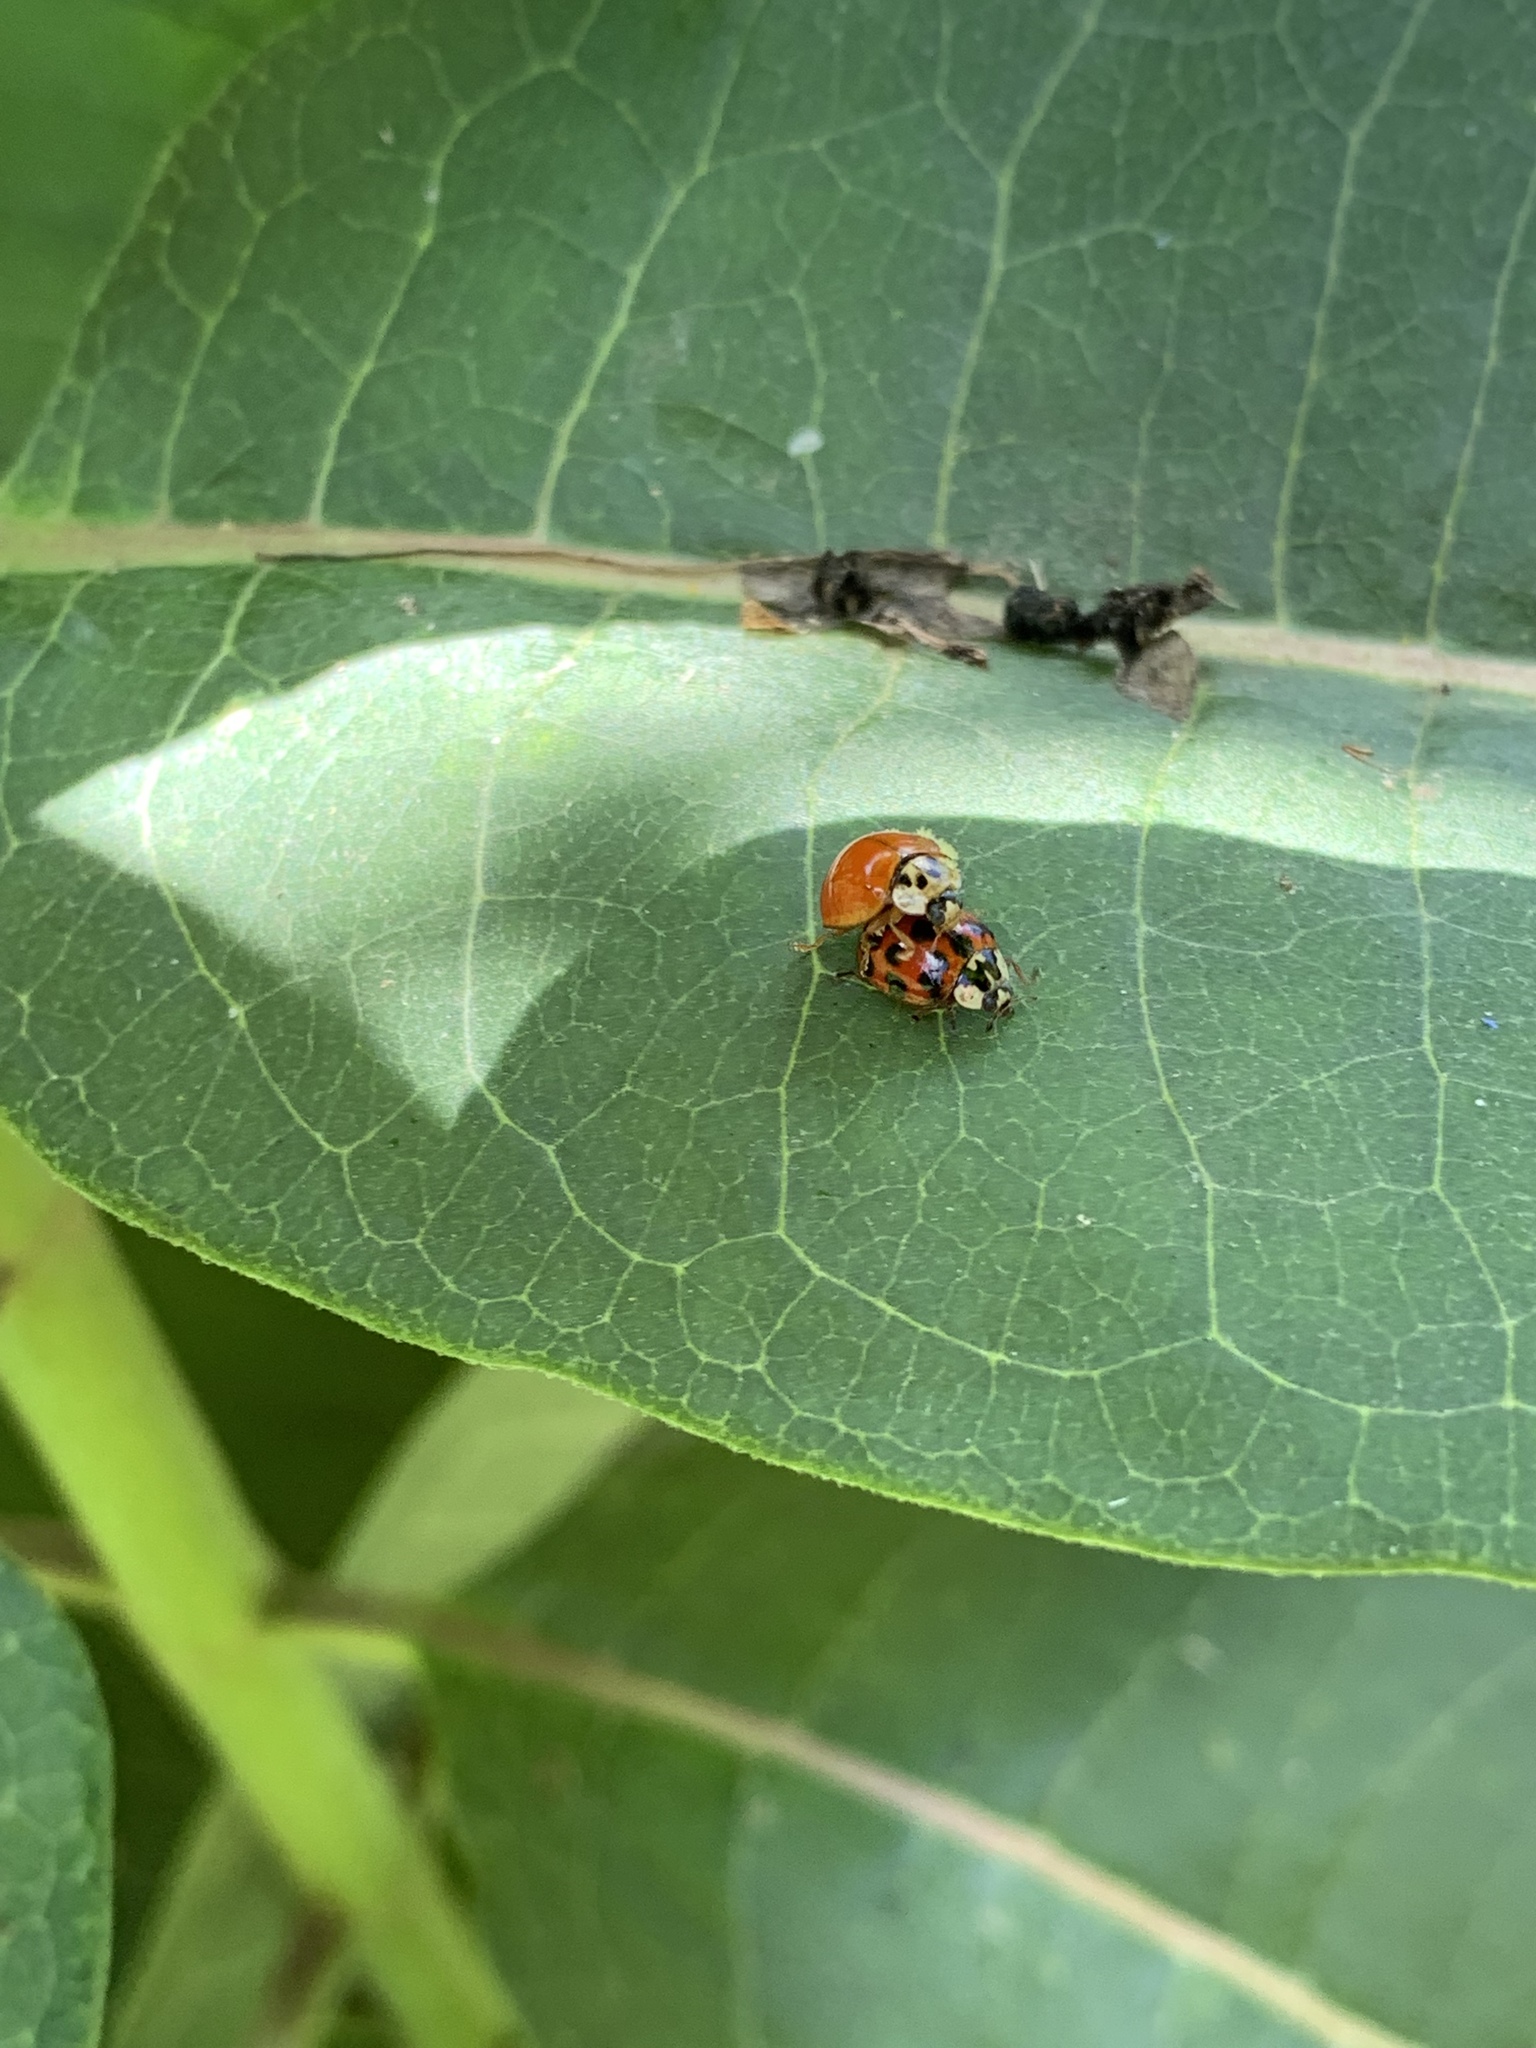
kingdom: Animalia
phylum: Arthropoda
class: Insecta
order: Coleoptera
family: Coccinellidae
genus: Harmonia
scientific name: Harmonia axyridis
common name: Harlequin ladybird
